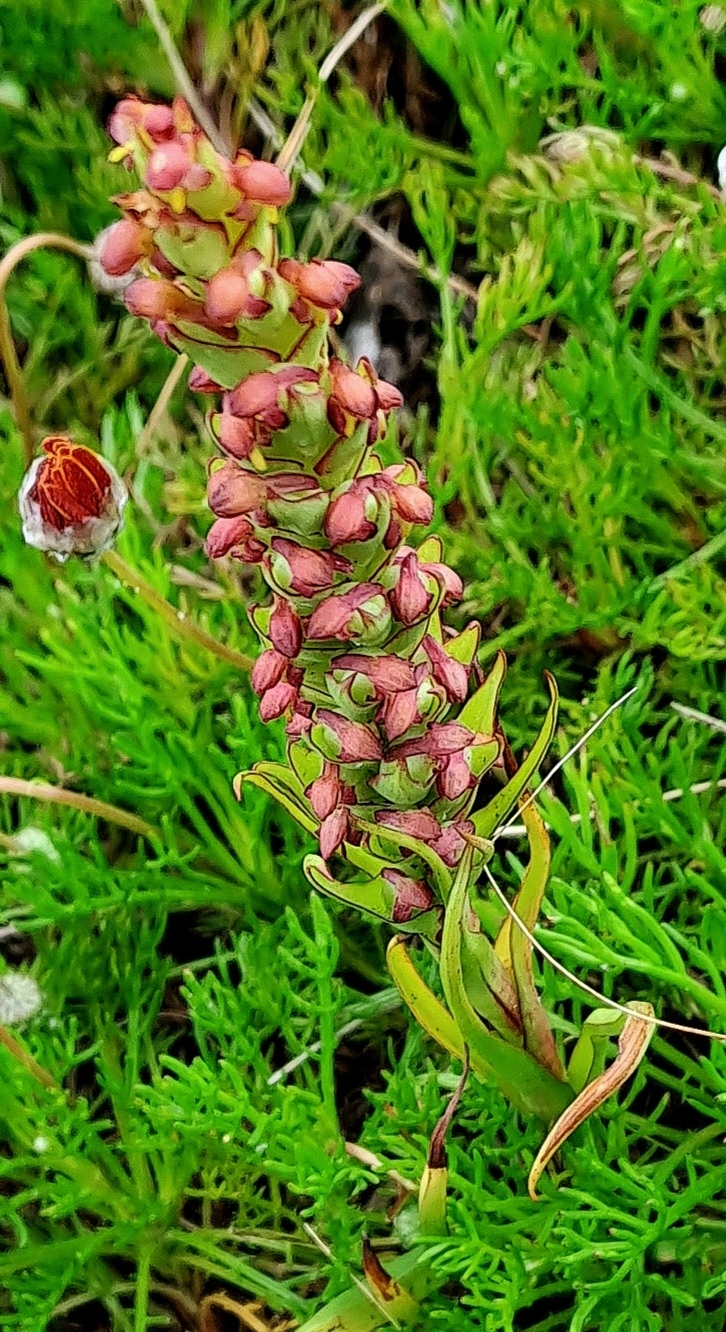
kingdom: Plantae
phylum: Tracheophyta
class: Liliopsida
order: Asparagales
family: Orchidaceae
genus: Disa
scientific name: Disa bracteata
